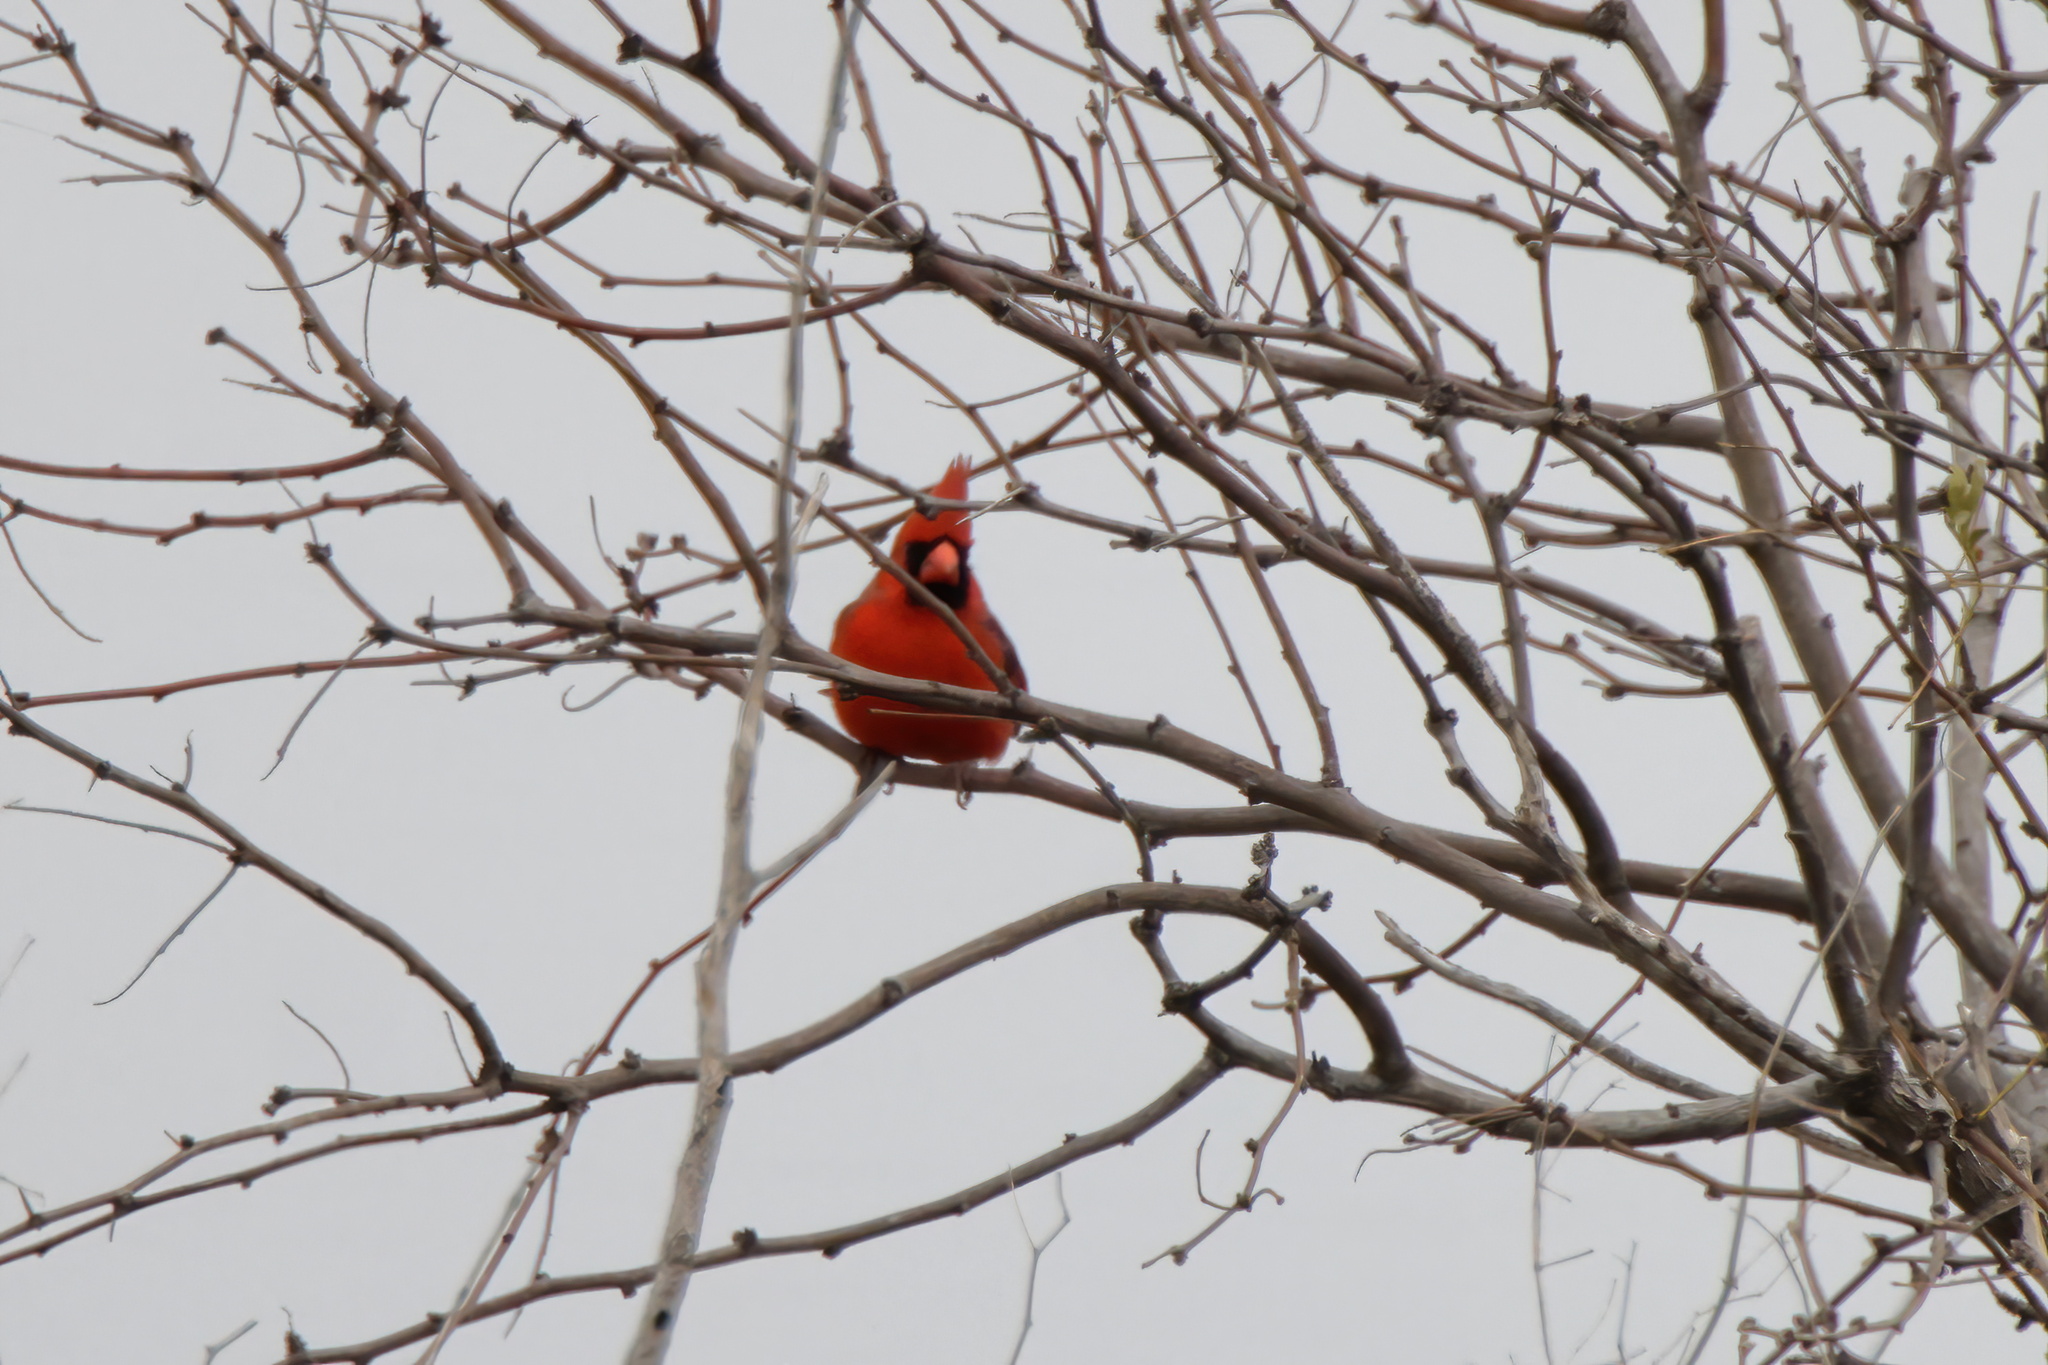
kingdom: Animalia
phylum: Chordata
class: Aves
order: Passeriformes
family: Cardinalidae
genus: Cardinalis
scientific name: Cardinalis cardinalis
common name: Northern cardinal
